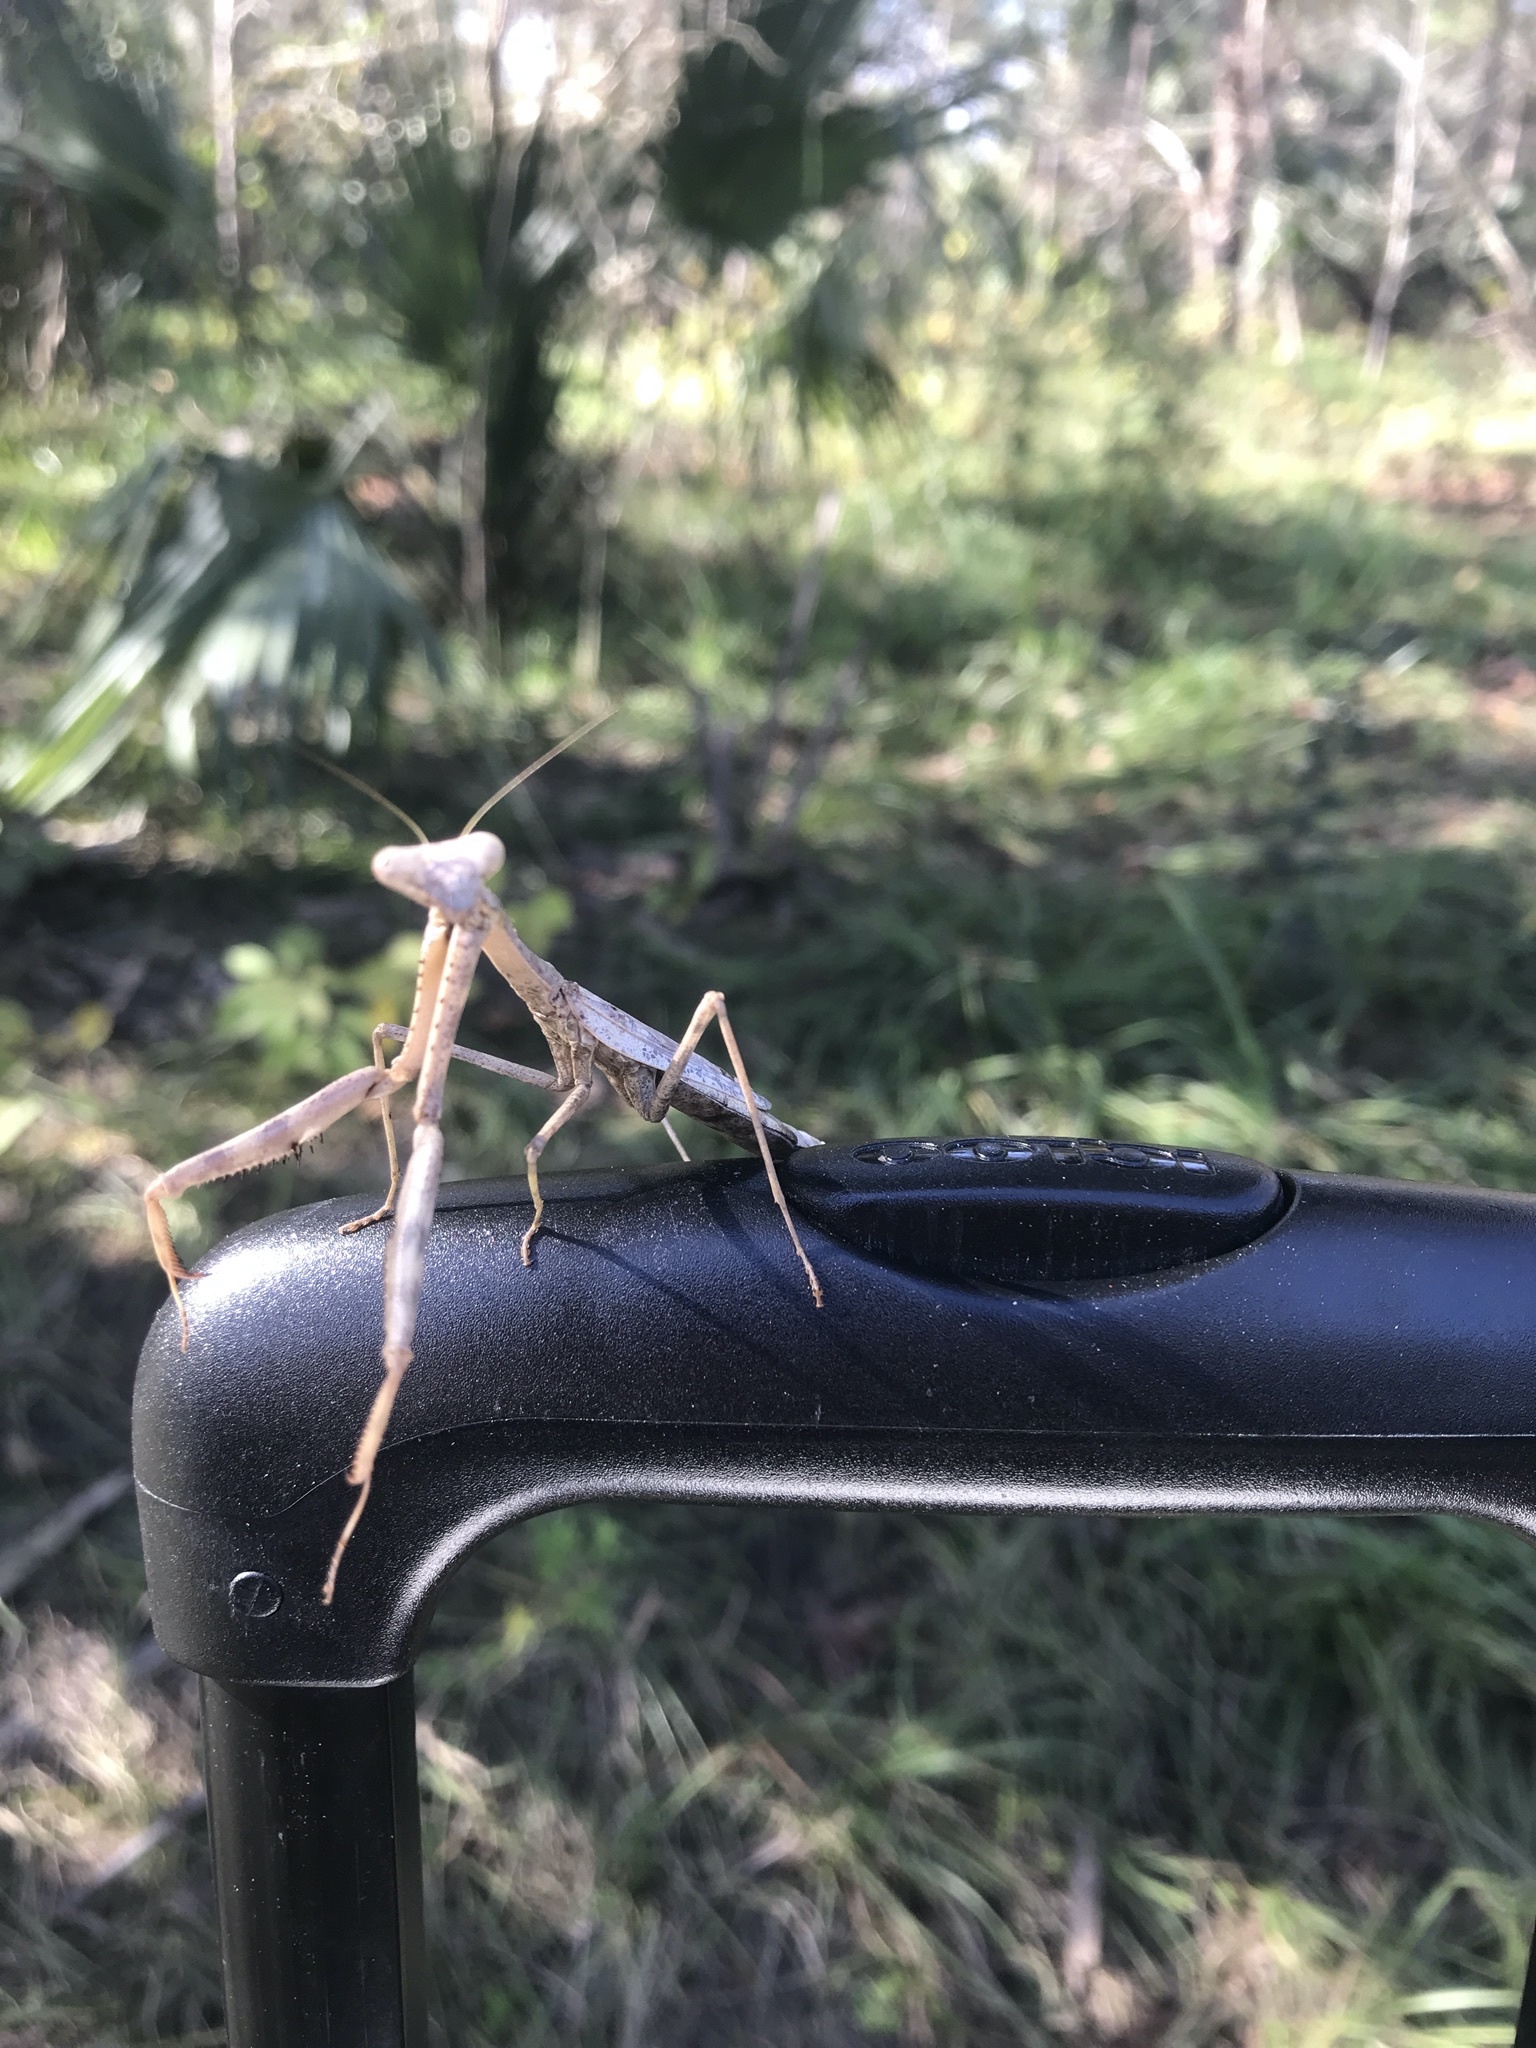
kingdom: Animalia
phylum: Arthropoda
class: Insecta
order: Mantodea
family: Mantidae
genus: Stagmomantis
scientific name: Stagmomantis floridensis
